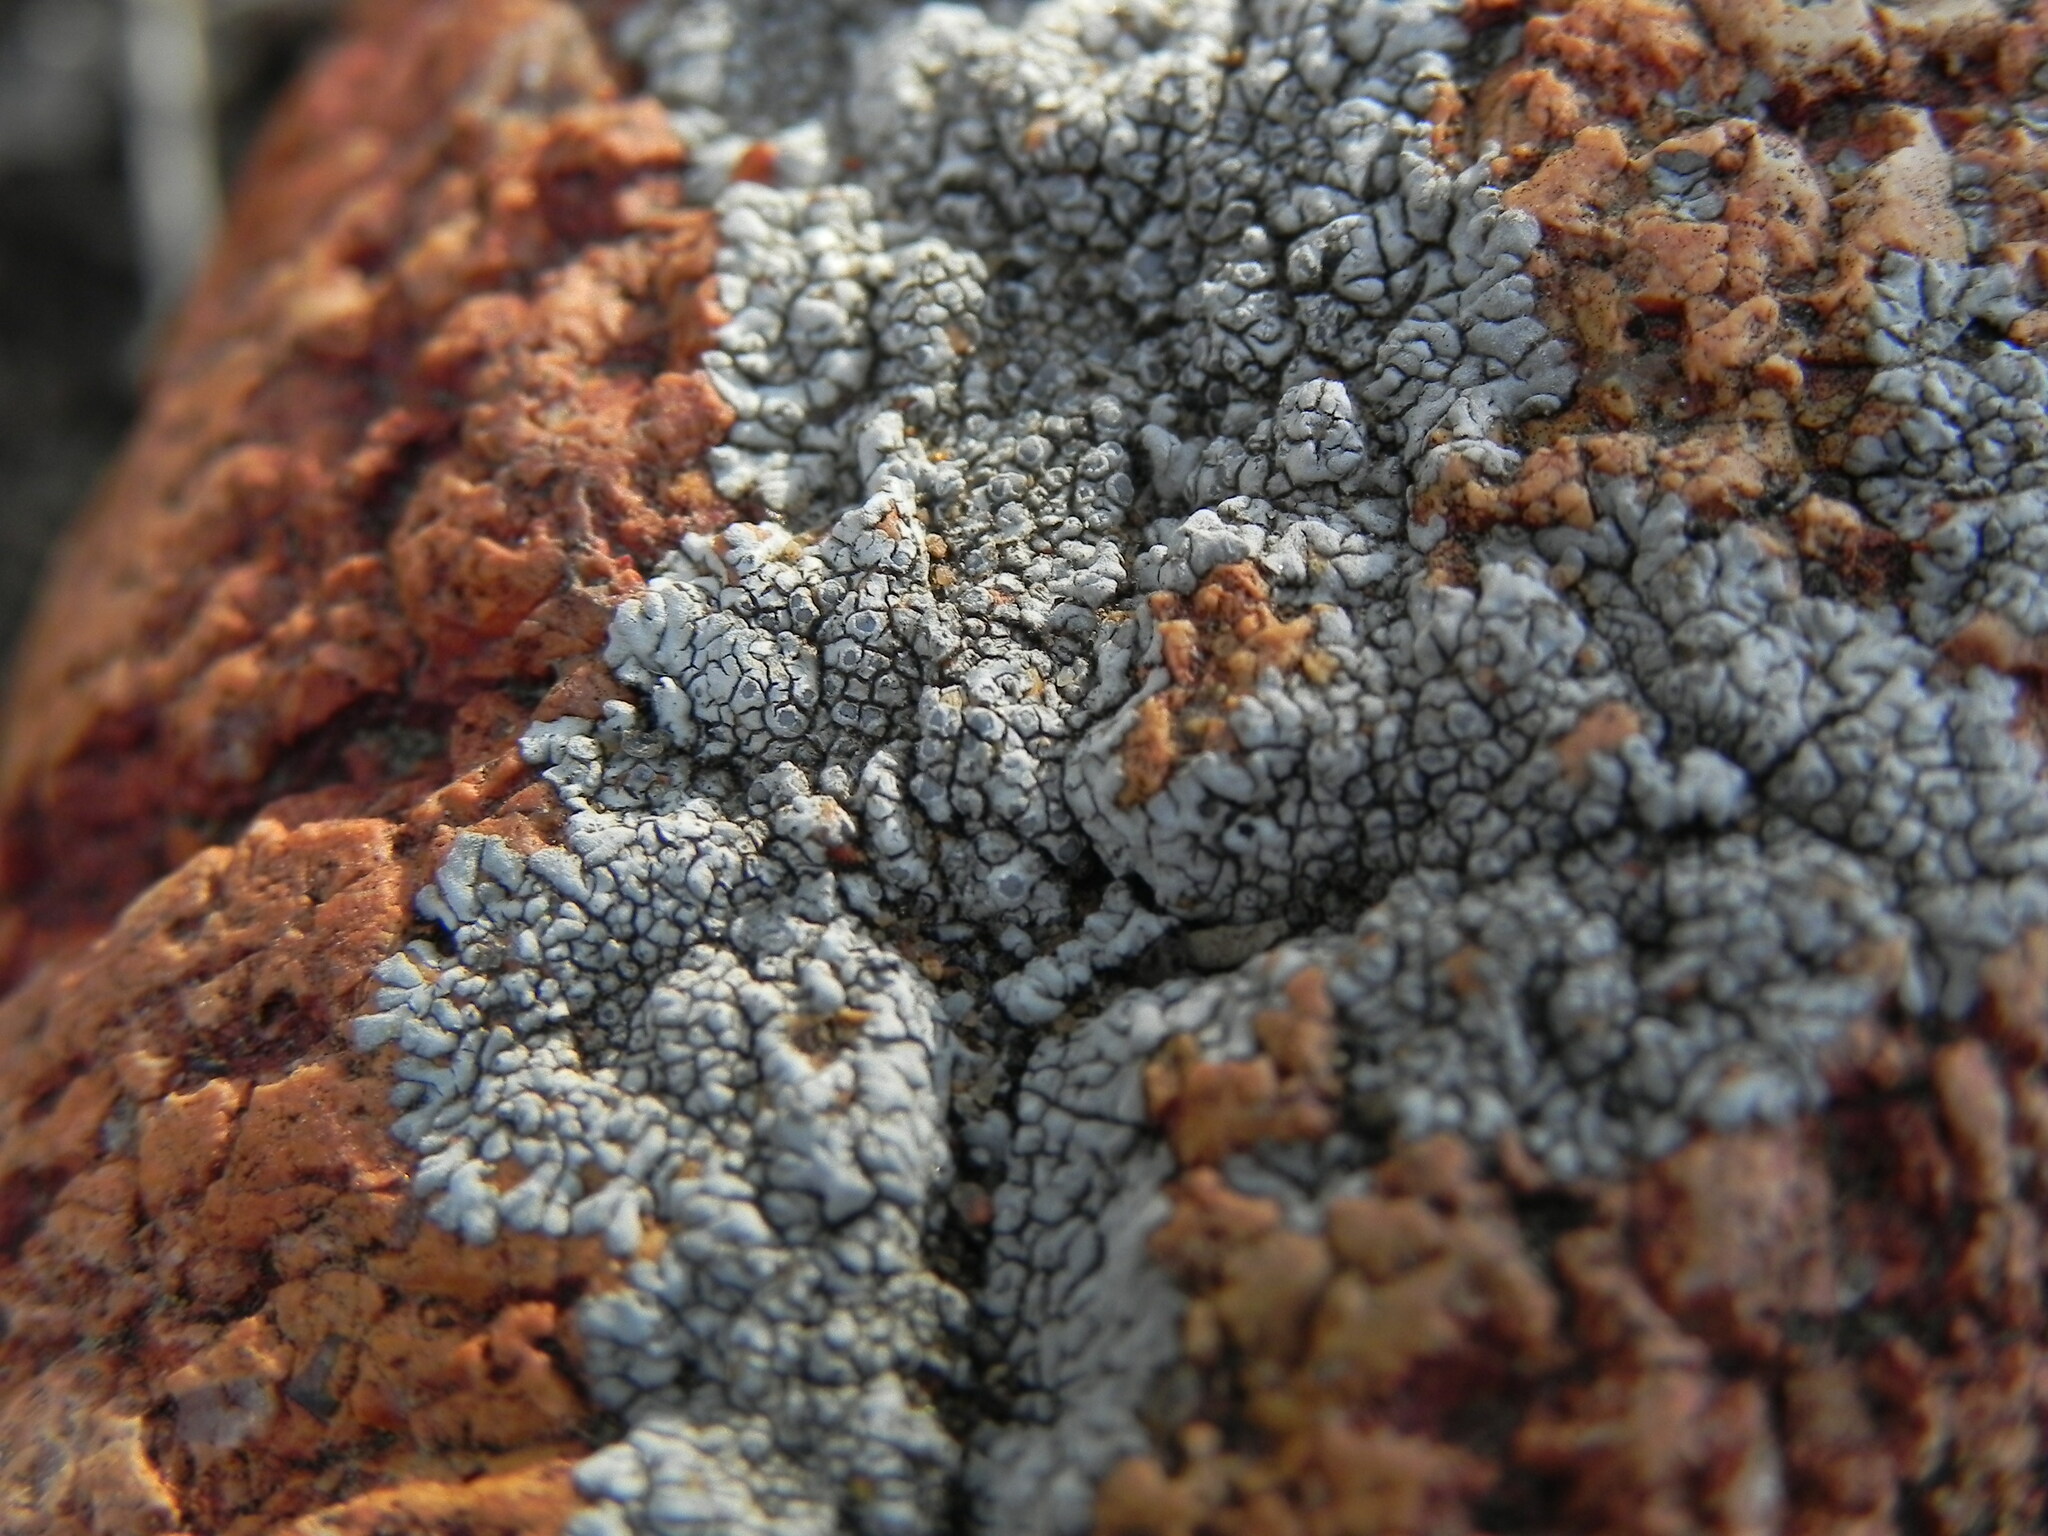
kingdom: Fungi
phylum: Ascomycota
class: Lecanoromycetes
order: Caliciales
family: Caliciaceae
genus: Dimelaena
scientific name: Dimelaena radiata
